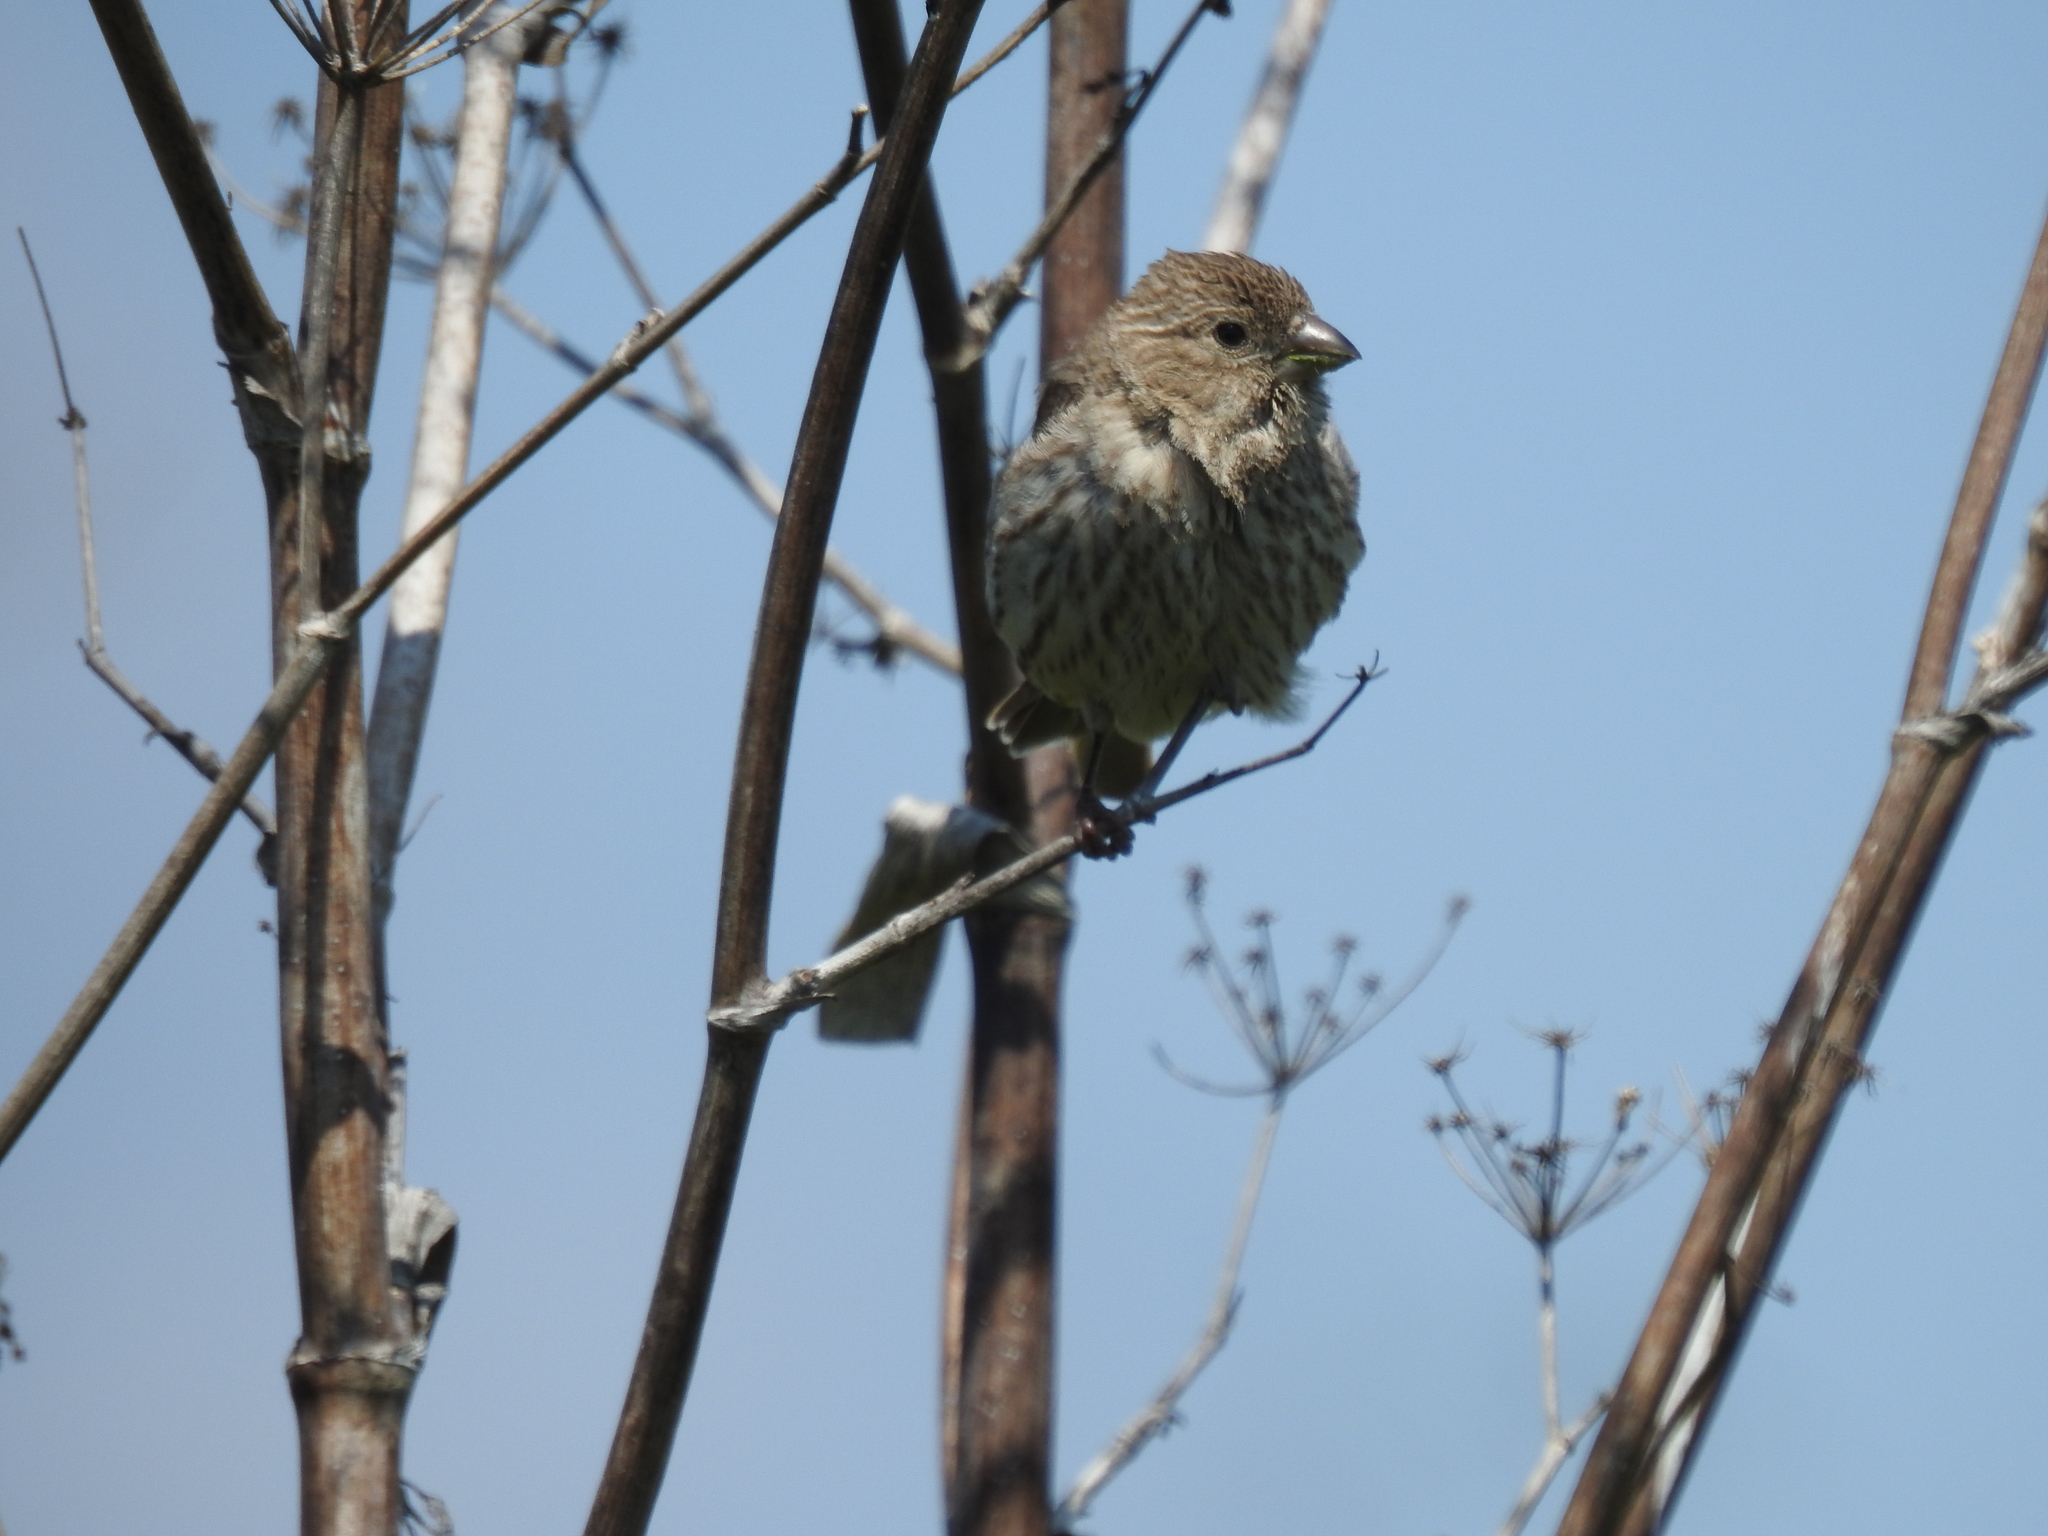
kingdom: Animalia
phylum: Chordata
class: Aves
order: Passeriformes
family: Fringillidae
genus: Haemorhous
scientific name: Haemorhous mexicanus
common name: House finch
